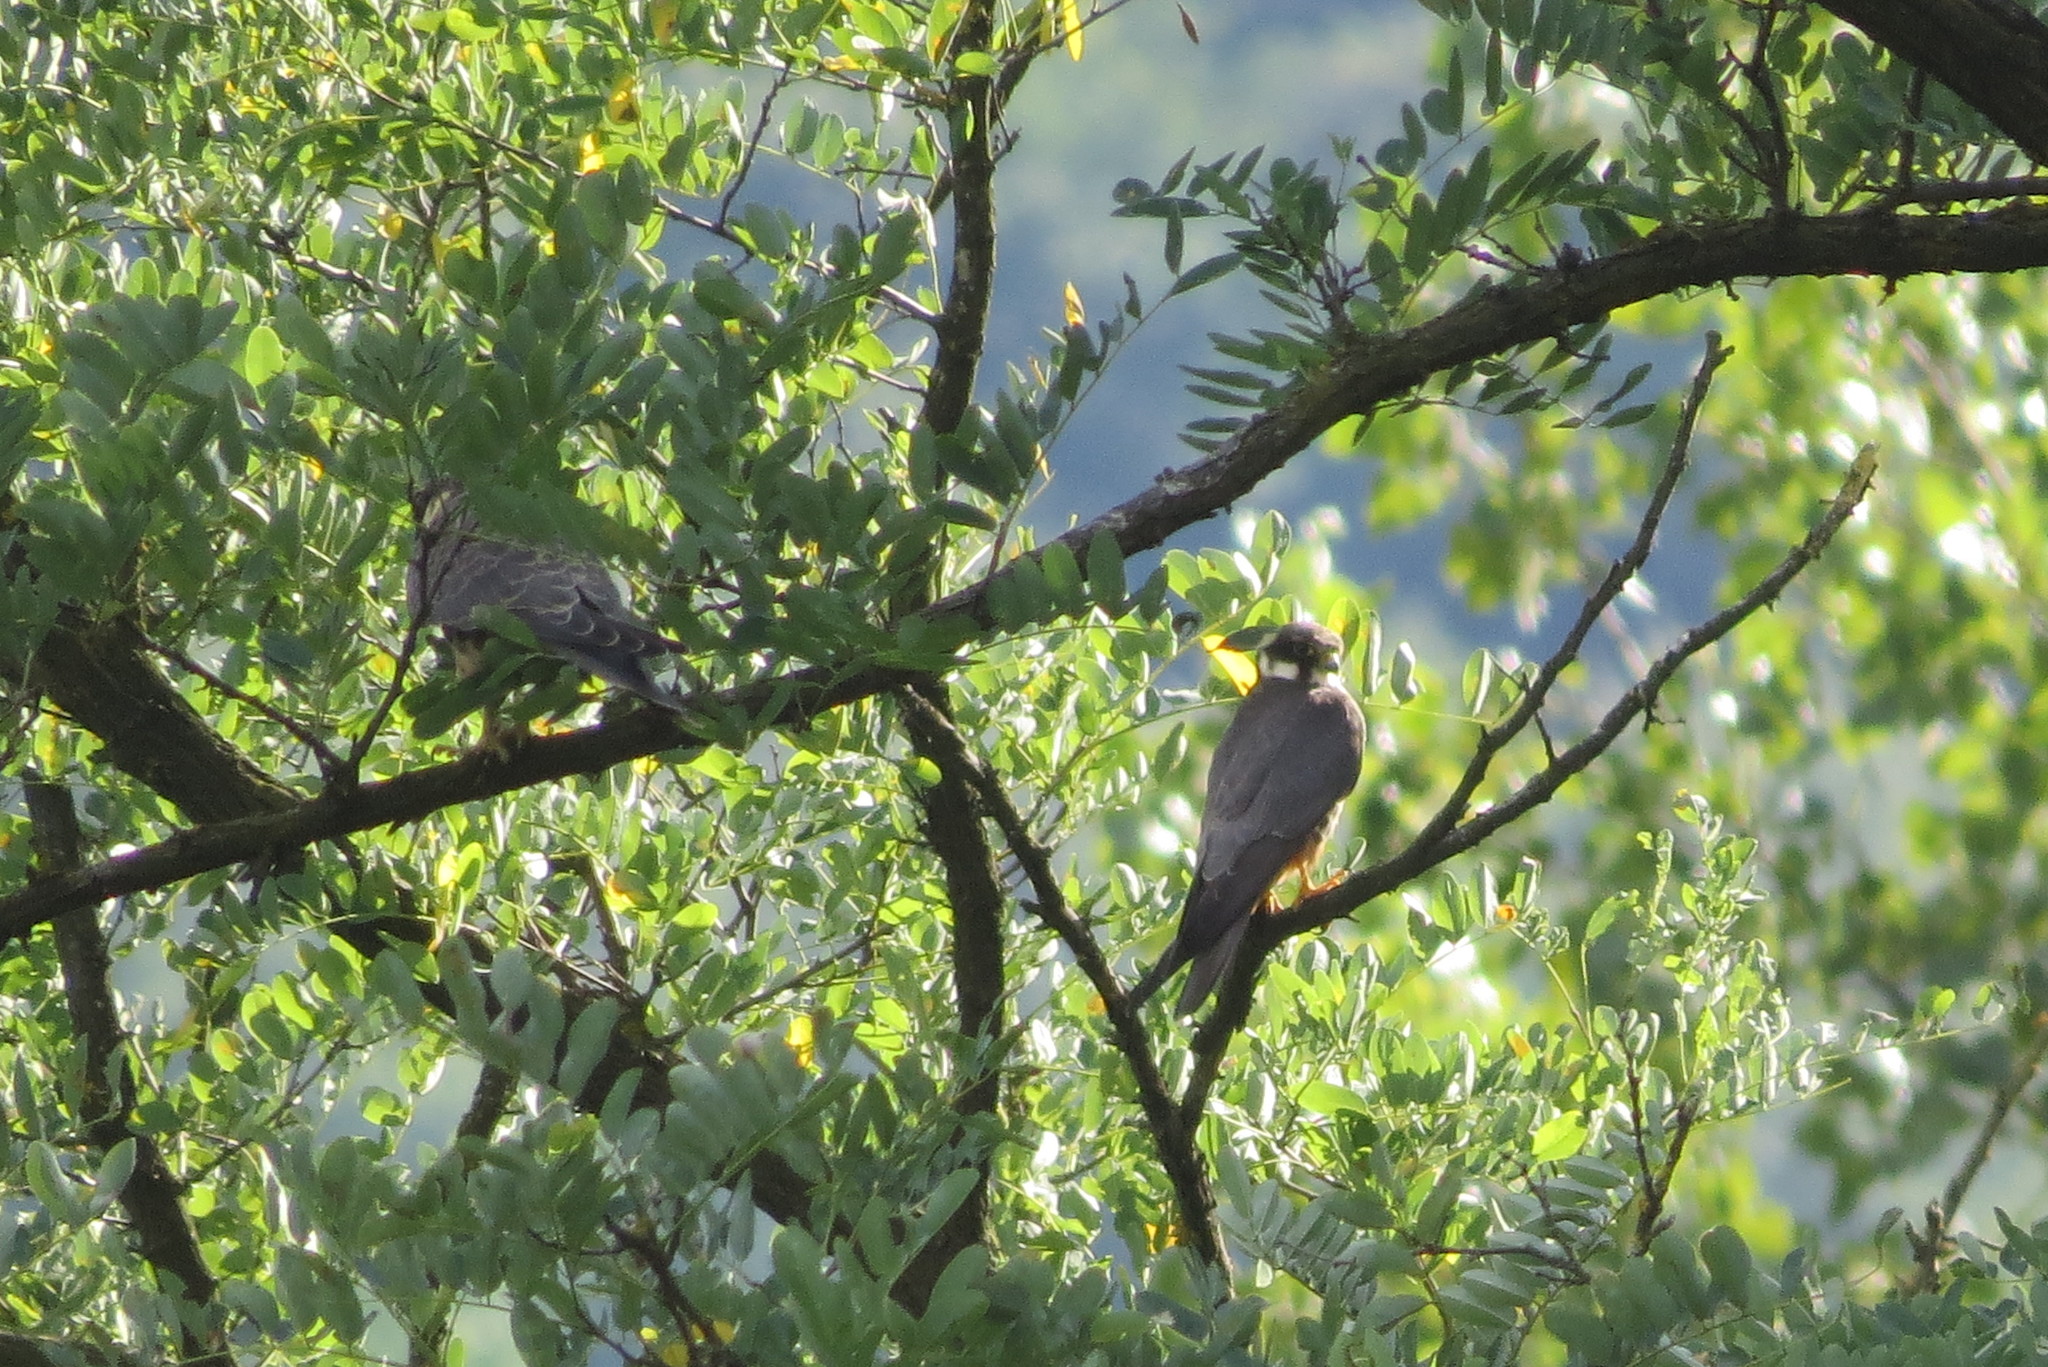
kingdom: Animalia
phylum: Chordata
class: Aves
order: Falconiformes
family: Falconidae
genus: Falco
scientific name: Falco subbuteo
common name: Eurasian hobby
